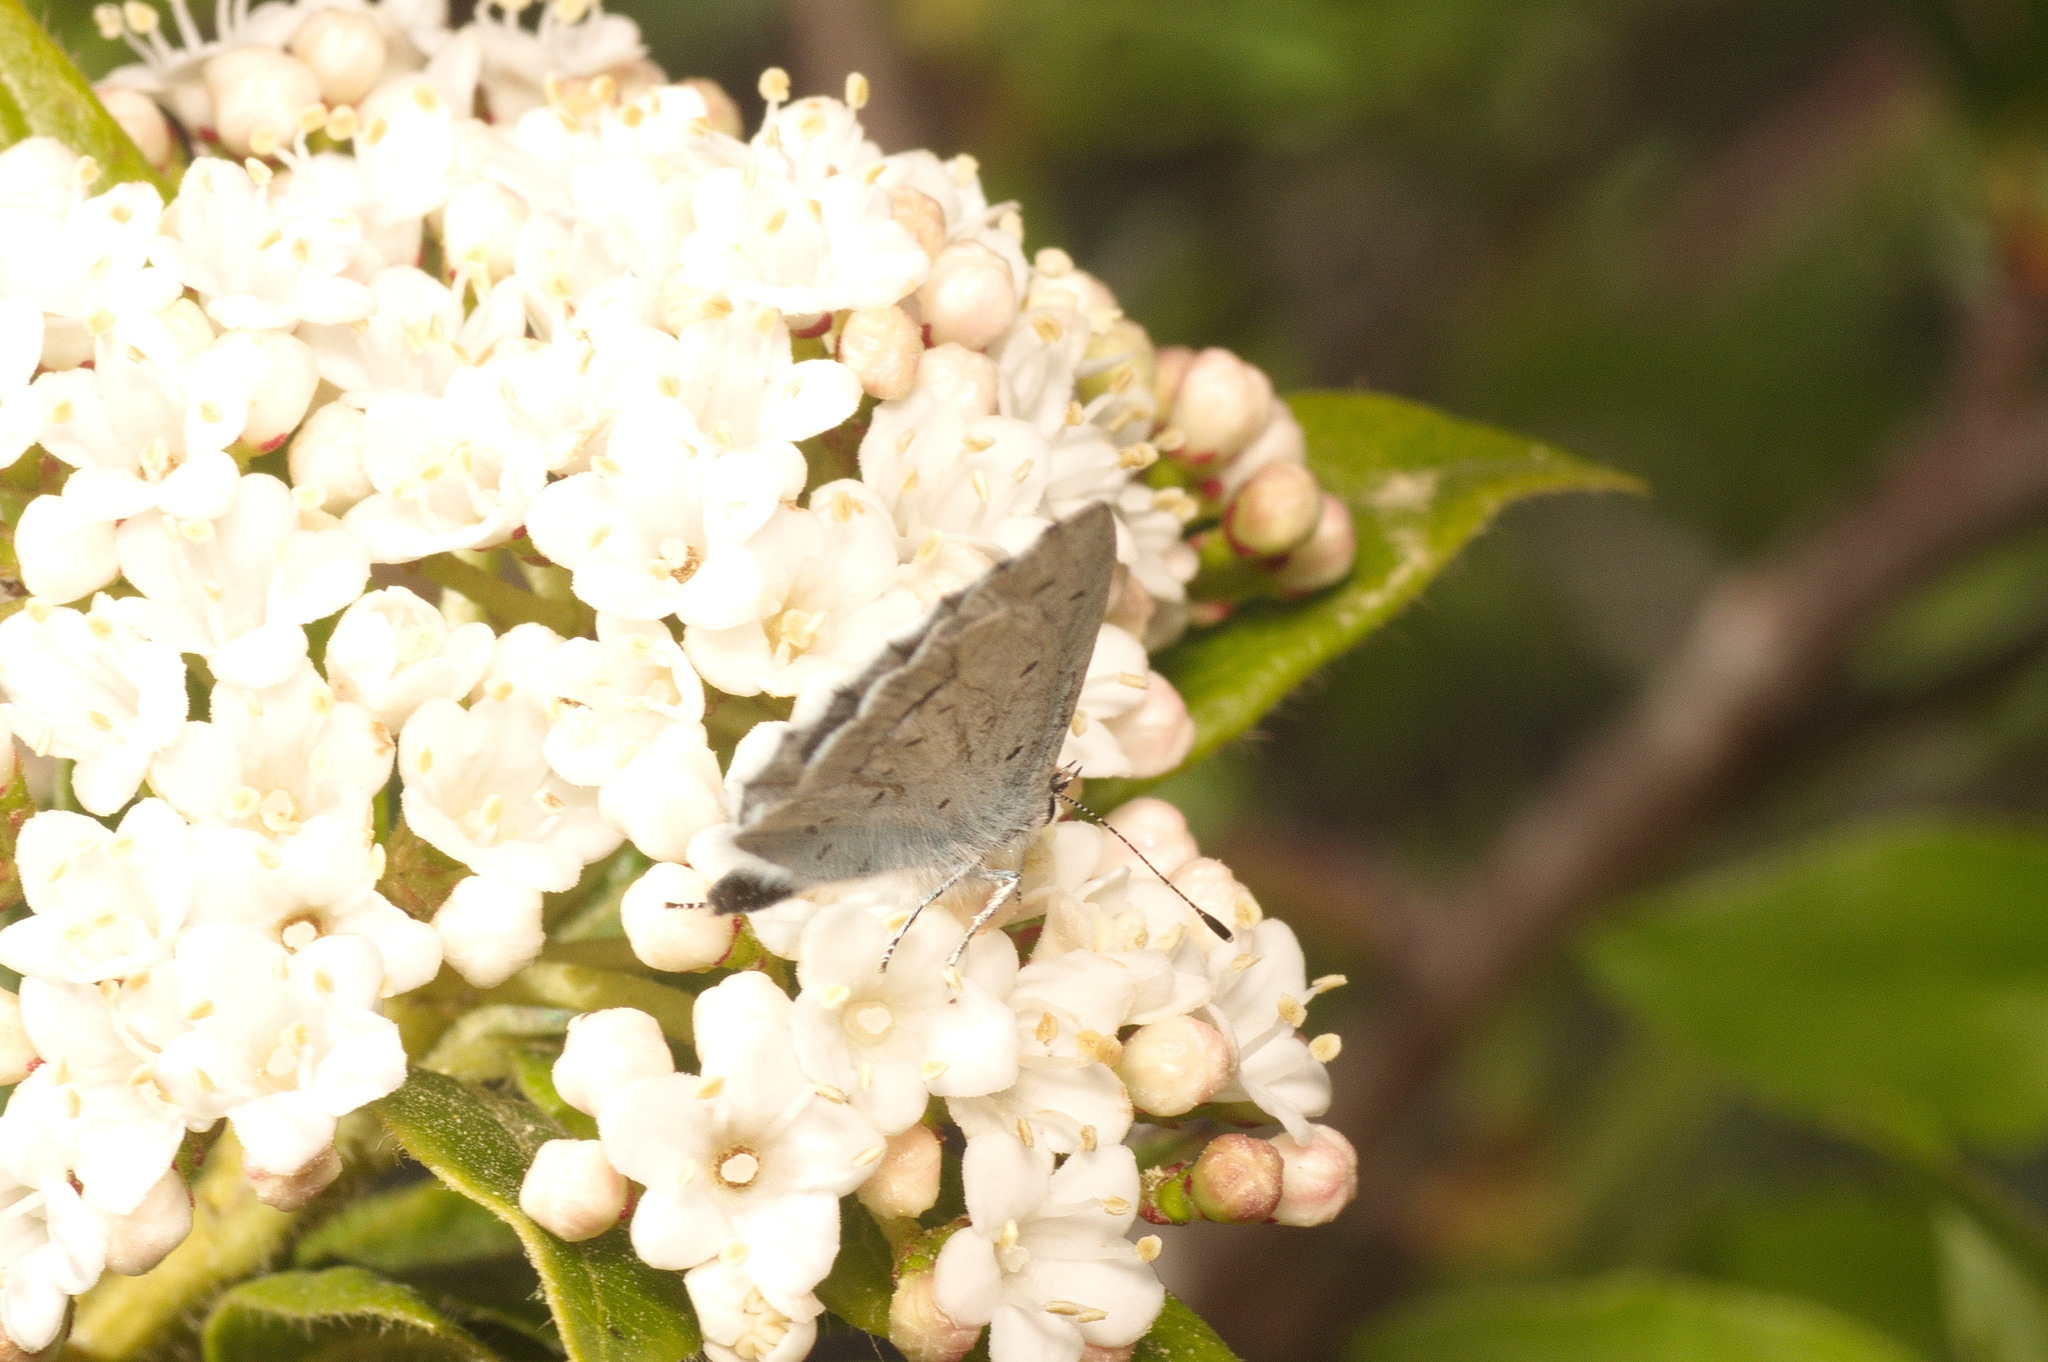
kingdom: Animalia
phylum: Arthropoda
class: Insecta
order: Lepidoptera
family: Lycaenidae
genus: Celastrina
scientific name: Celastrina argiolus
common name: Holly blue
